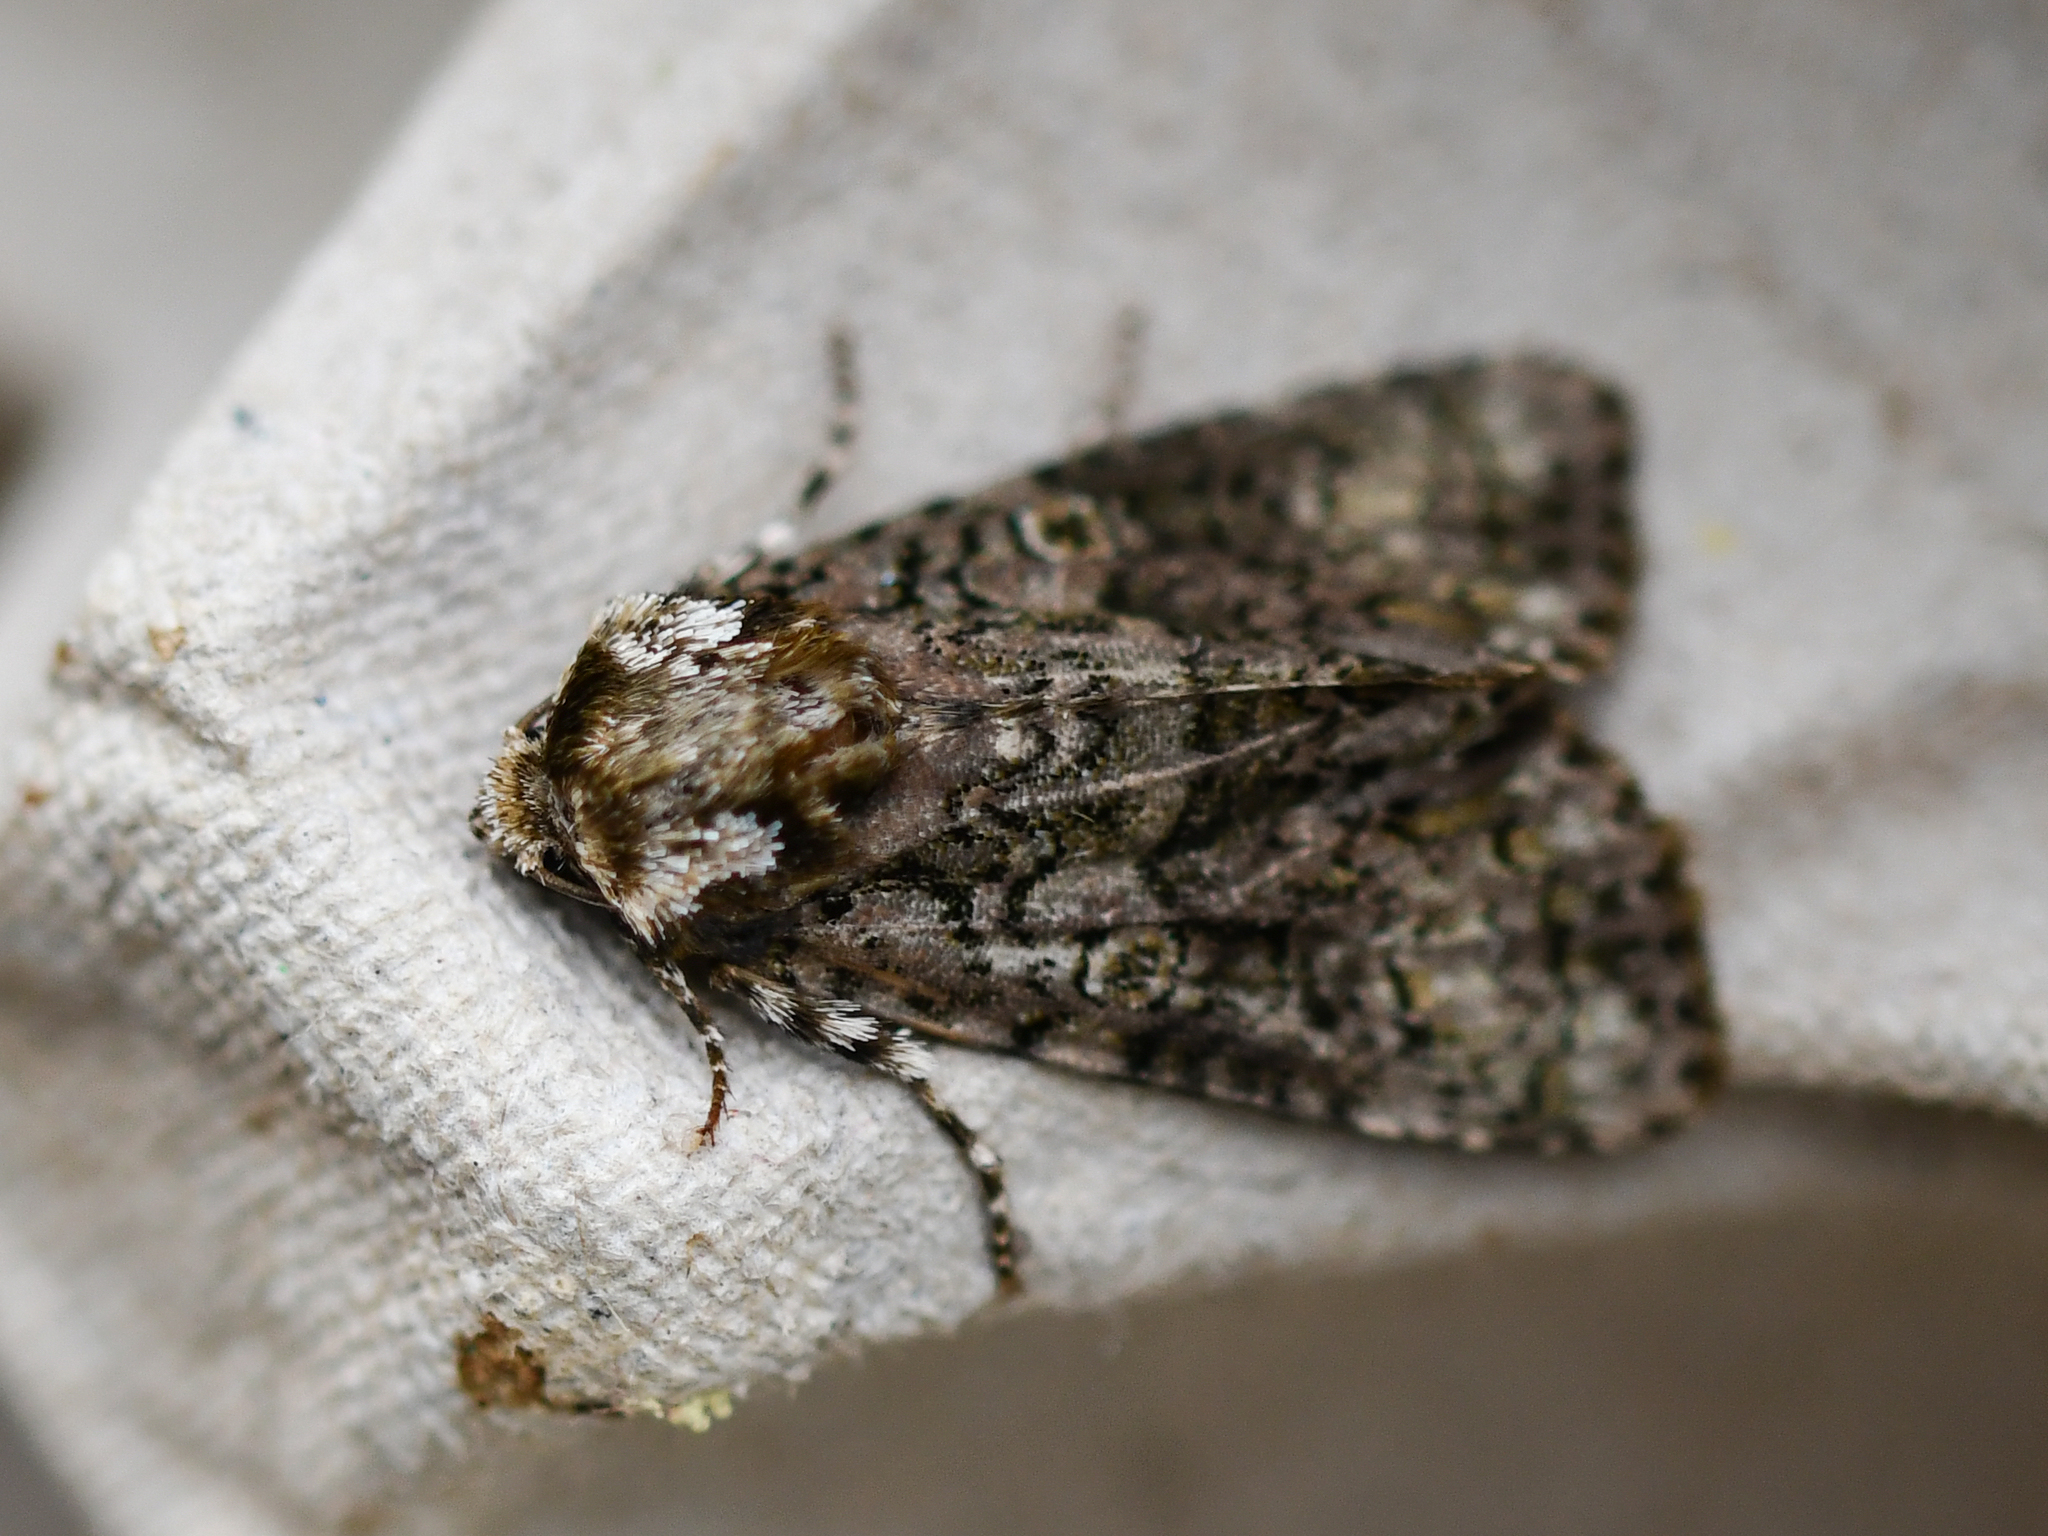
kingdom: Animalia
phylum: Arthropoda
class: Insecta
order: Lepidoptera
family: Noctuidae
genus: Craniophora
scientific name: Craniophora ligustri
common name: Coronet
